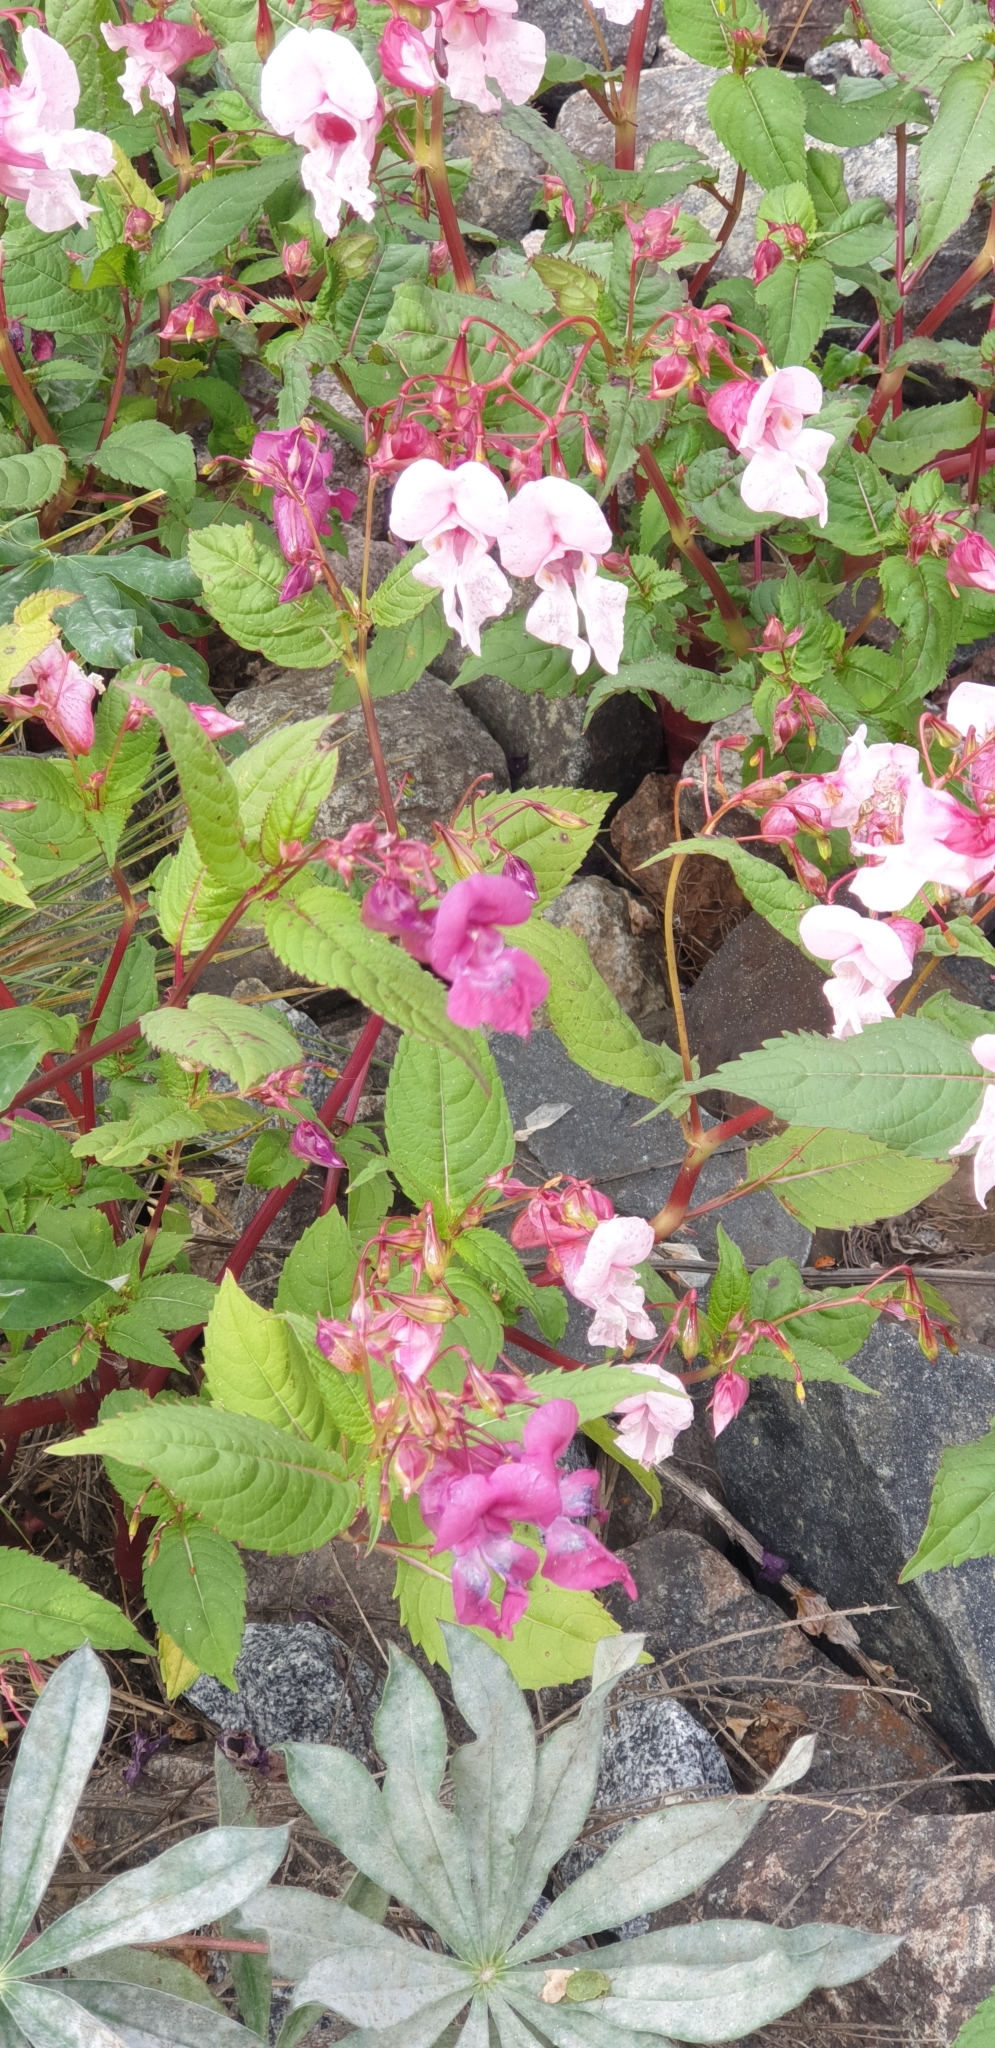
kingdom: Plantae
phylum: Tracheophyta
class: Magnoliopsida
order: Ericales
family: Balsaminaceae
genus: Impatiens
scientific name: Impatiens glandulifera
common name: Himalayan balsam
